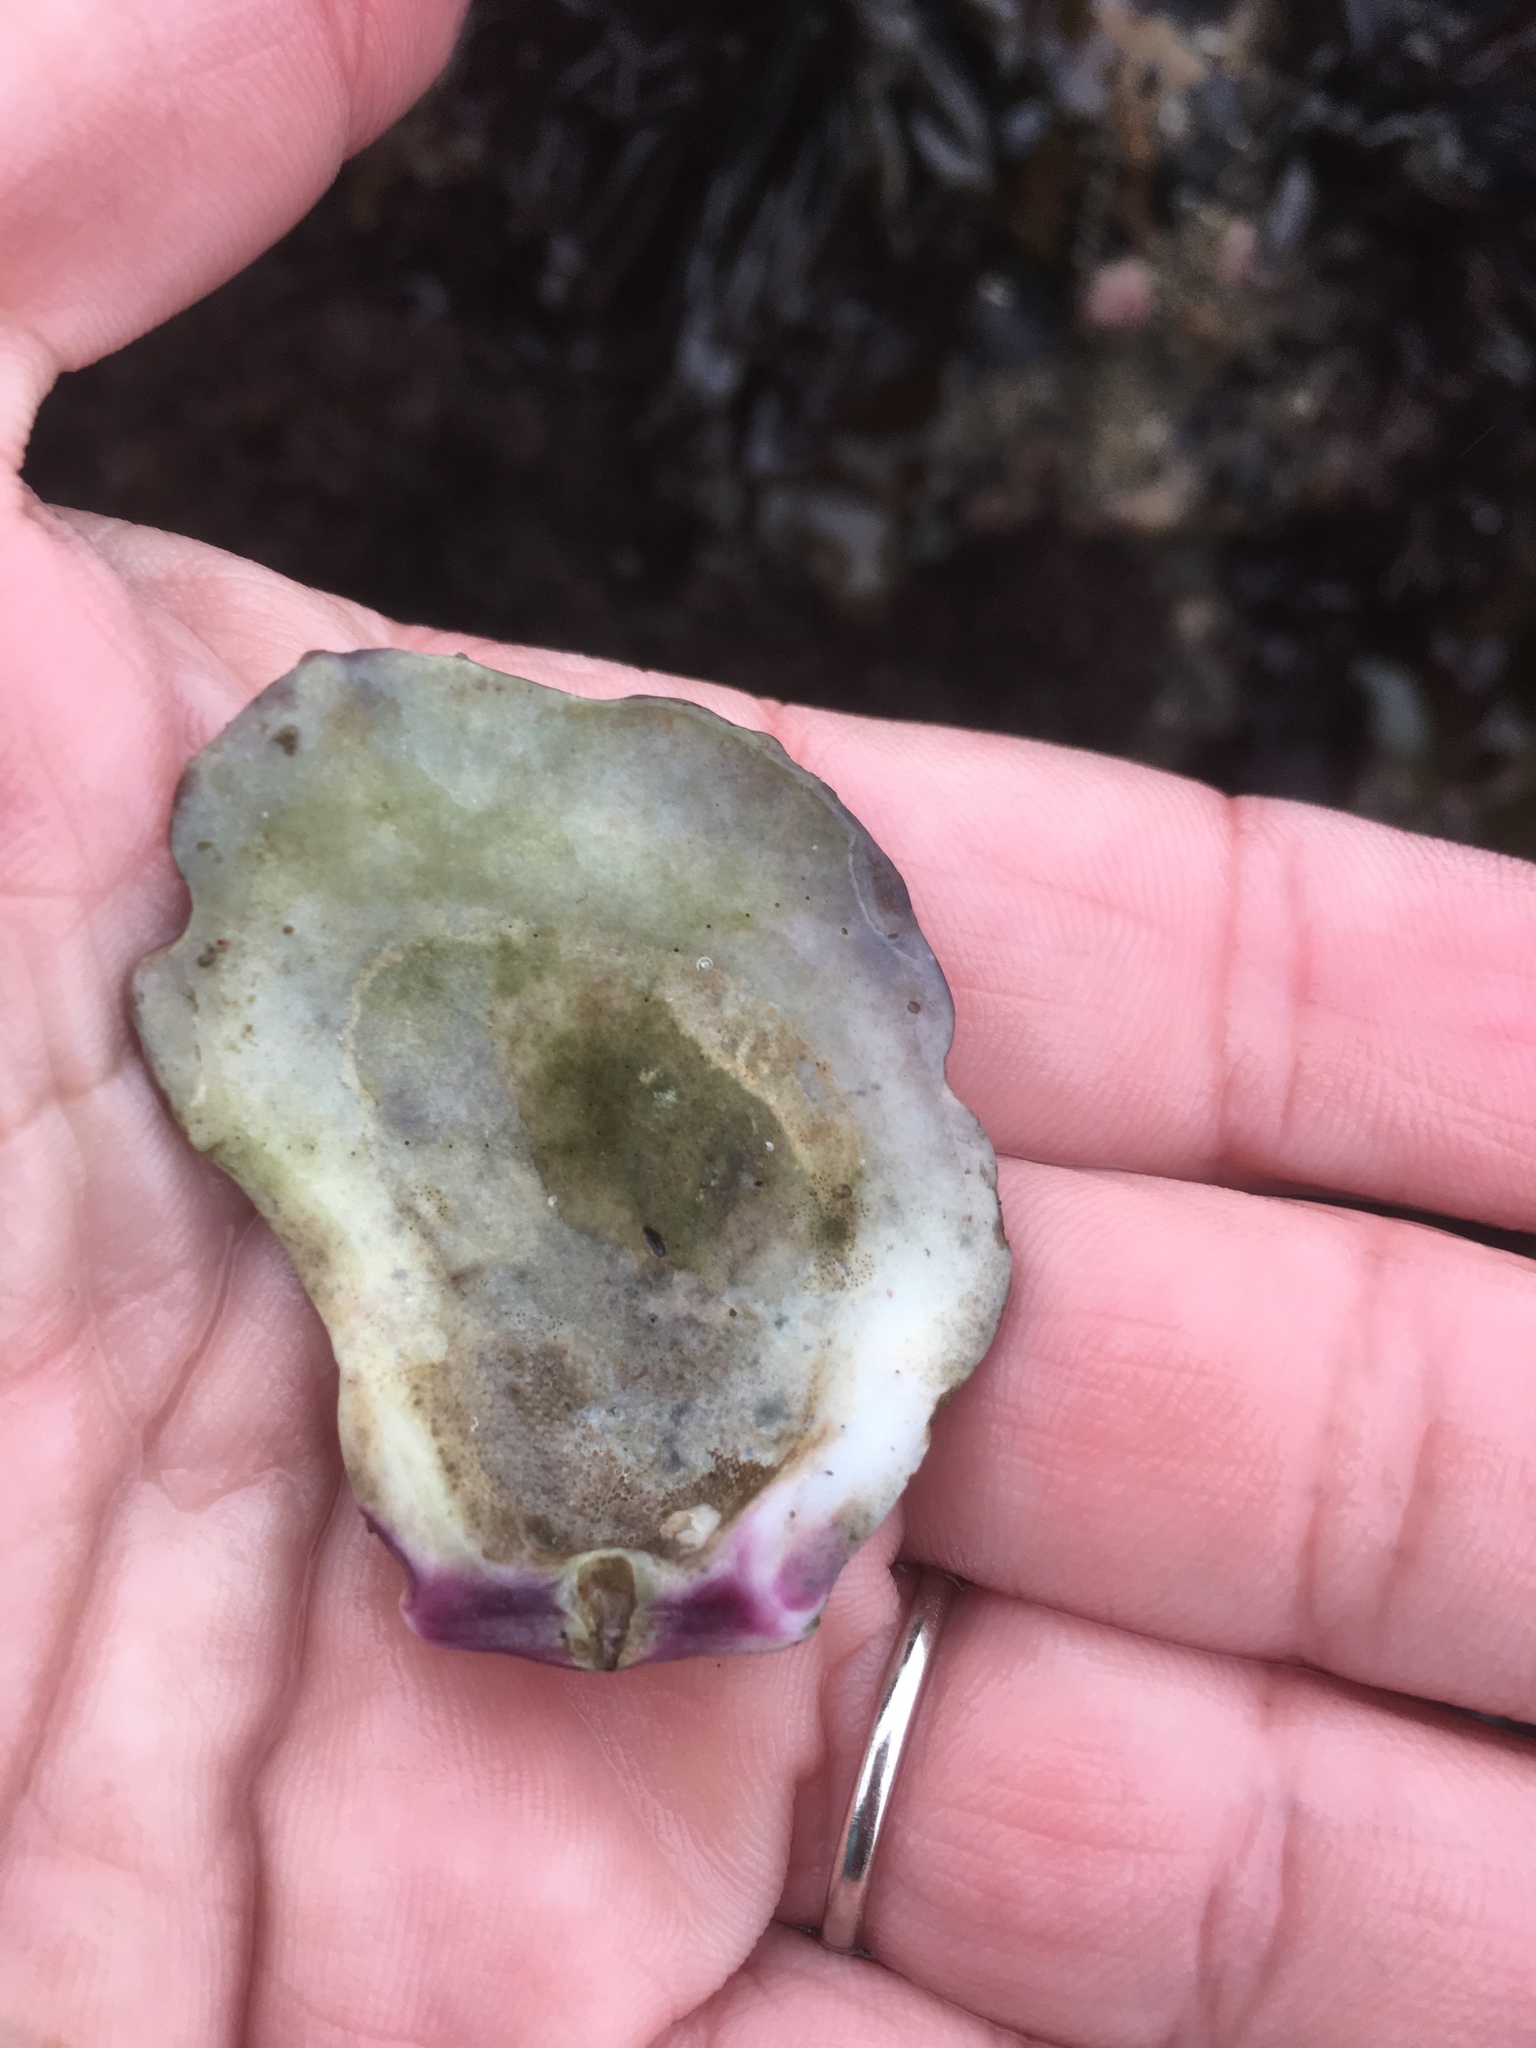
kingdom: Animalia
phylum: Mollusca
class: Bivalvia
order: Pectinida
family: Pectinidae
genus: Crassadoma
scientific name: Crassadoma gigantea
